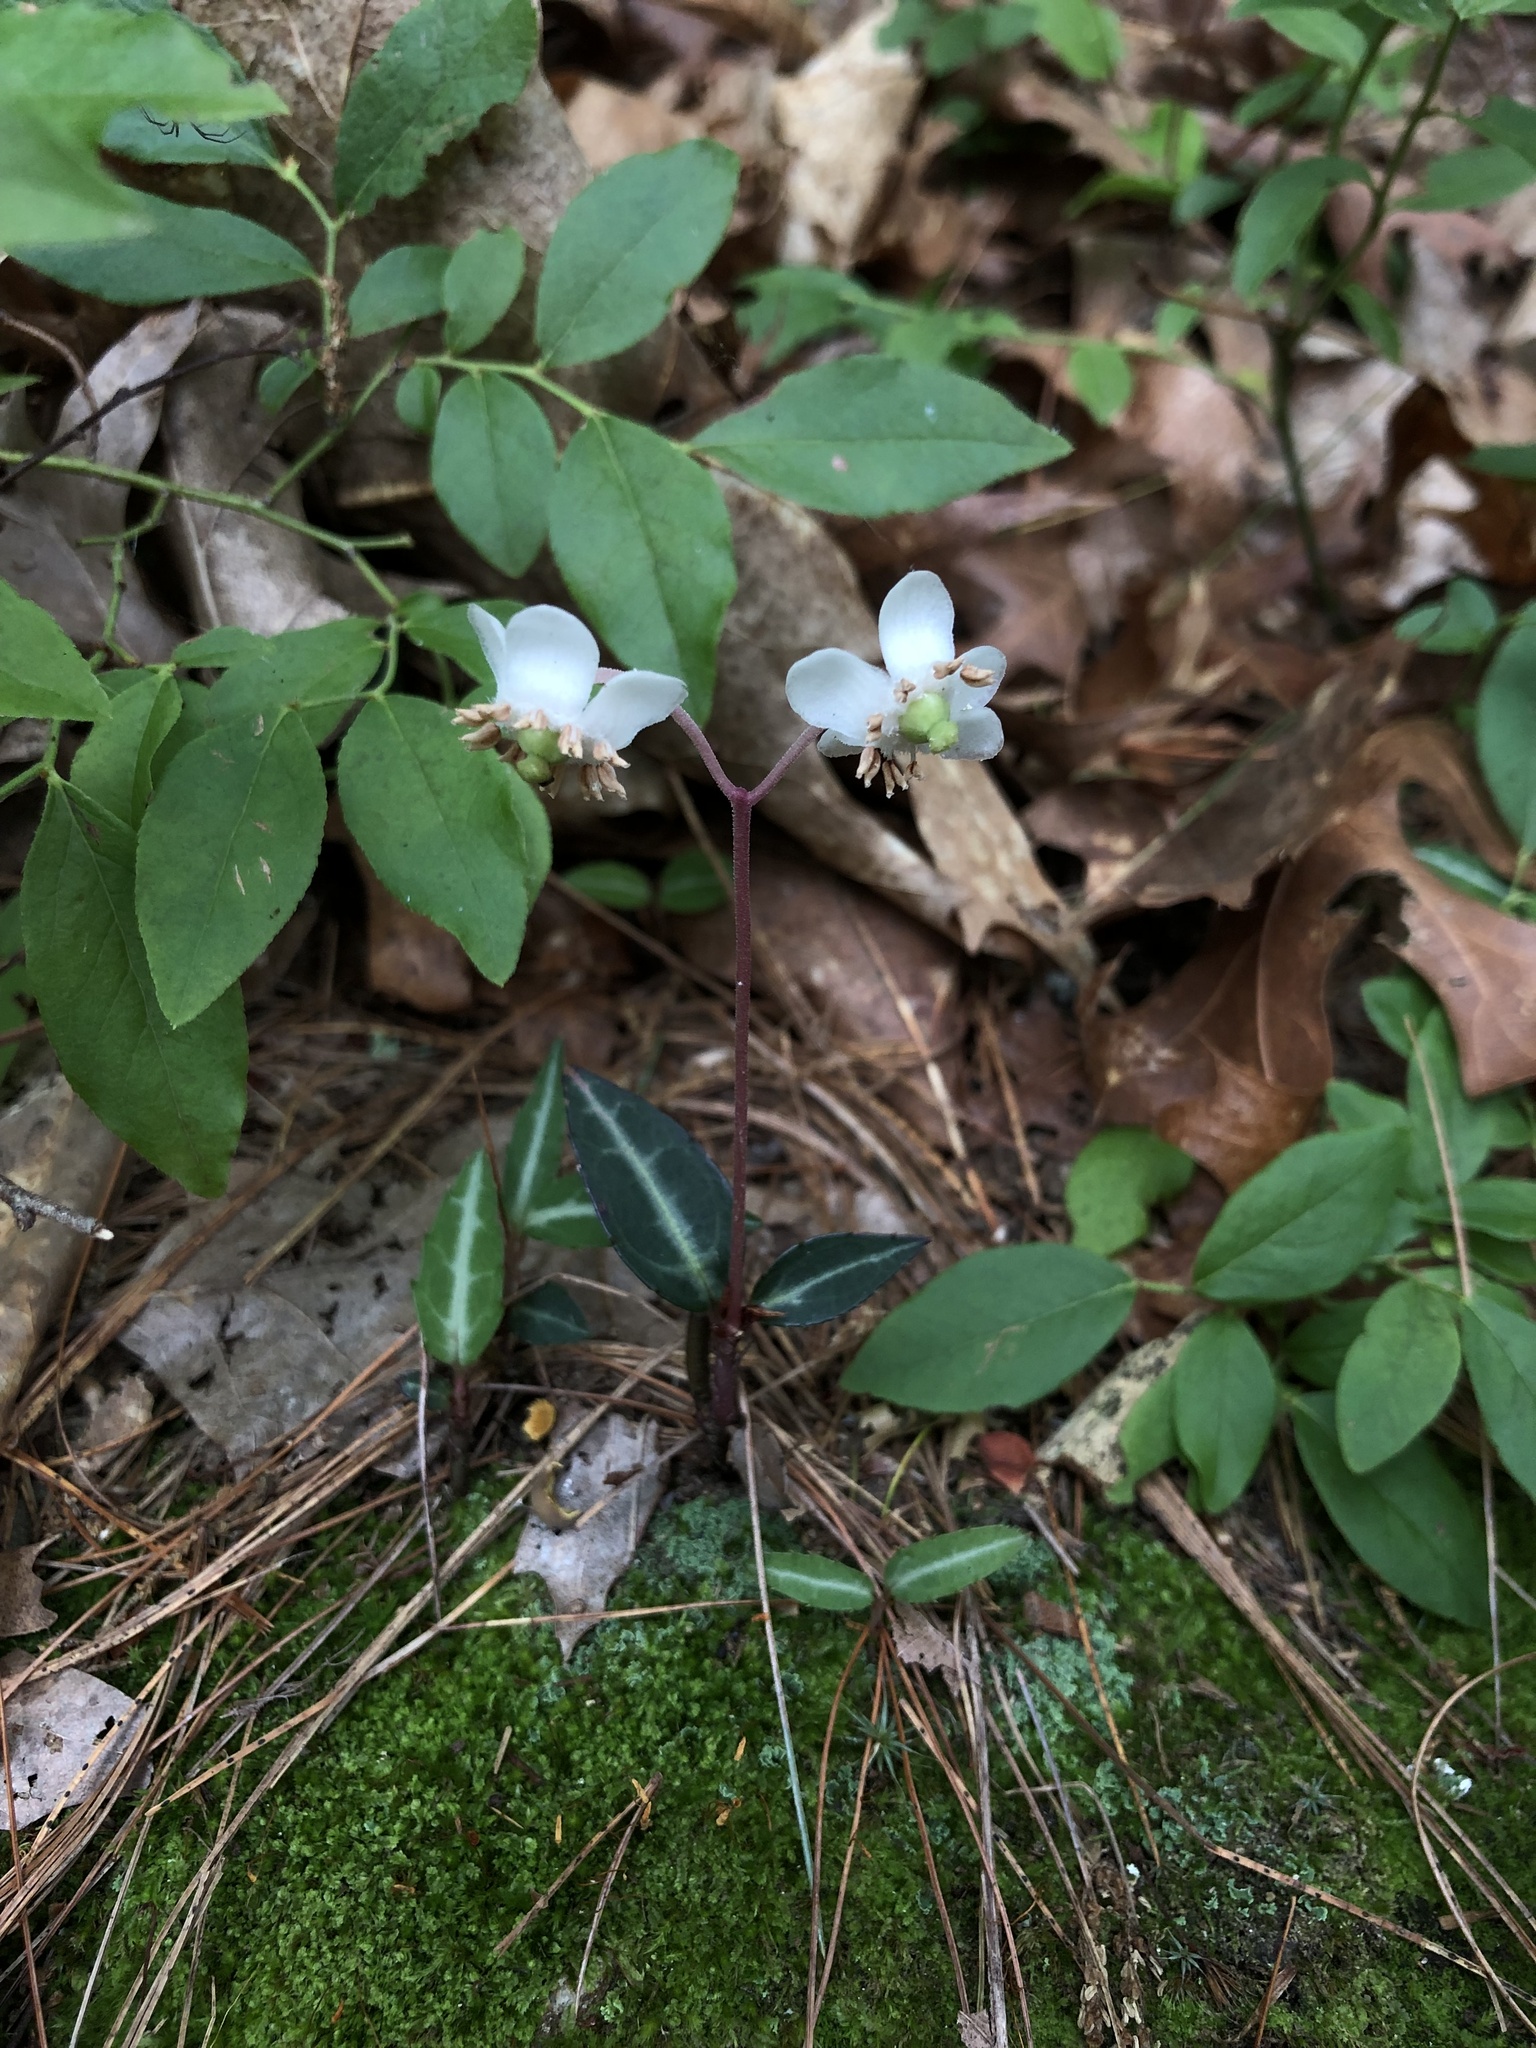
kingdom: Plantae
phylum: Tracheophyta
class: Magnoliopsida
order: Ericales
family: Ericaceae
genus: Chimaphila
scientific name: Chimaphila maculata
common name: Spotted pipsissewa
